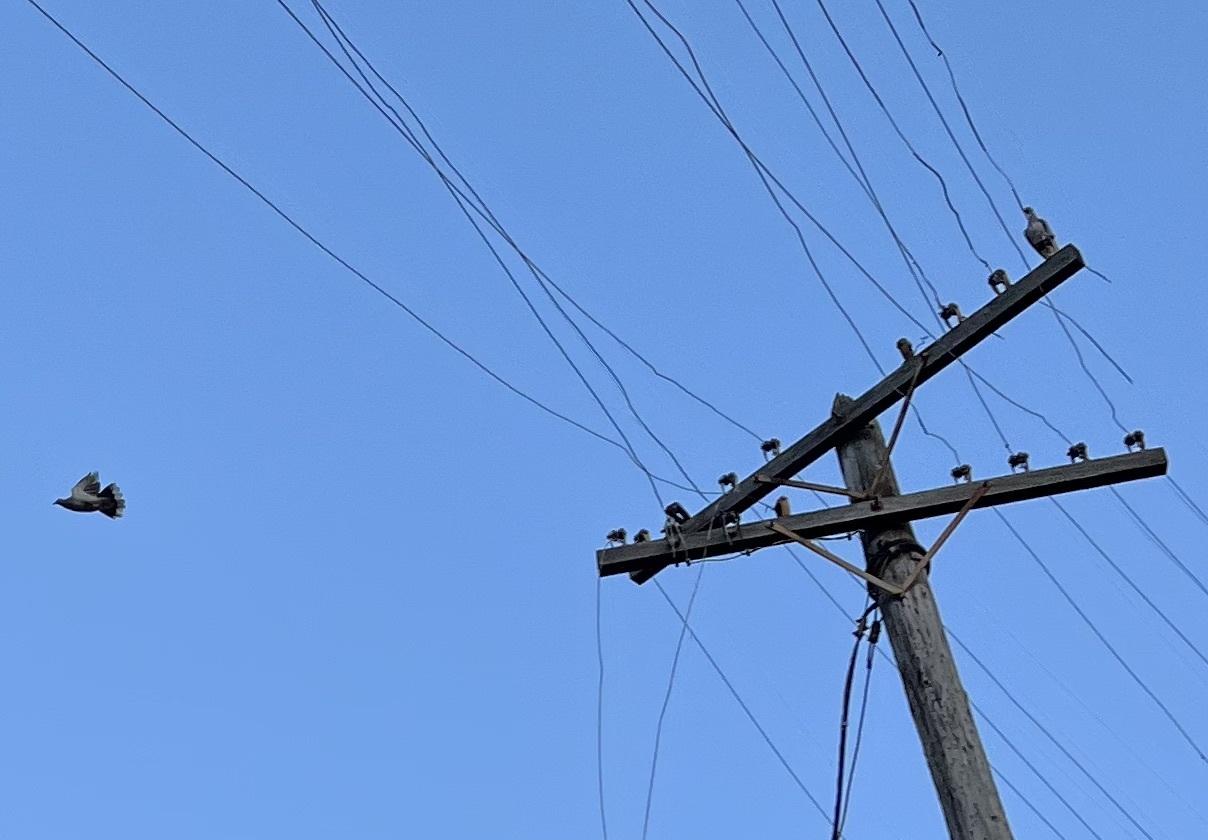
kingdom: Animalia
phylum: Chordata
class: Aves
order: Columbiformes
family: Columbidae
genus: Streptopelia
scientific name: Streptopelia decaocto
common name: Eurasian collared dove
